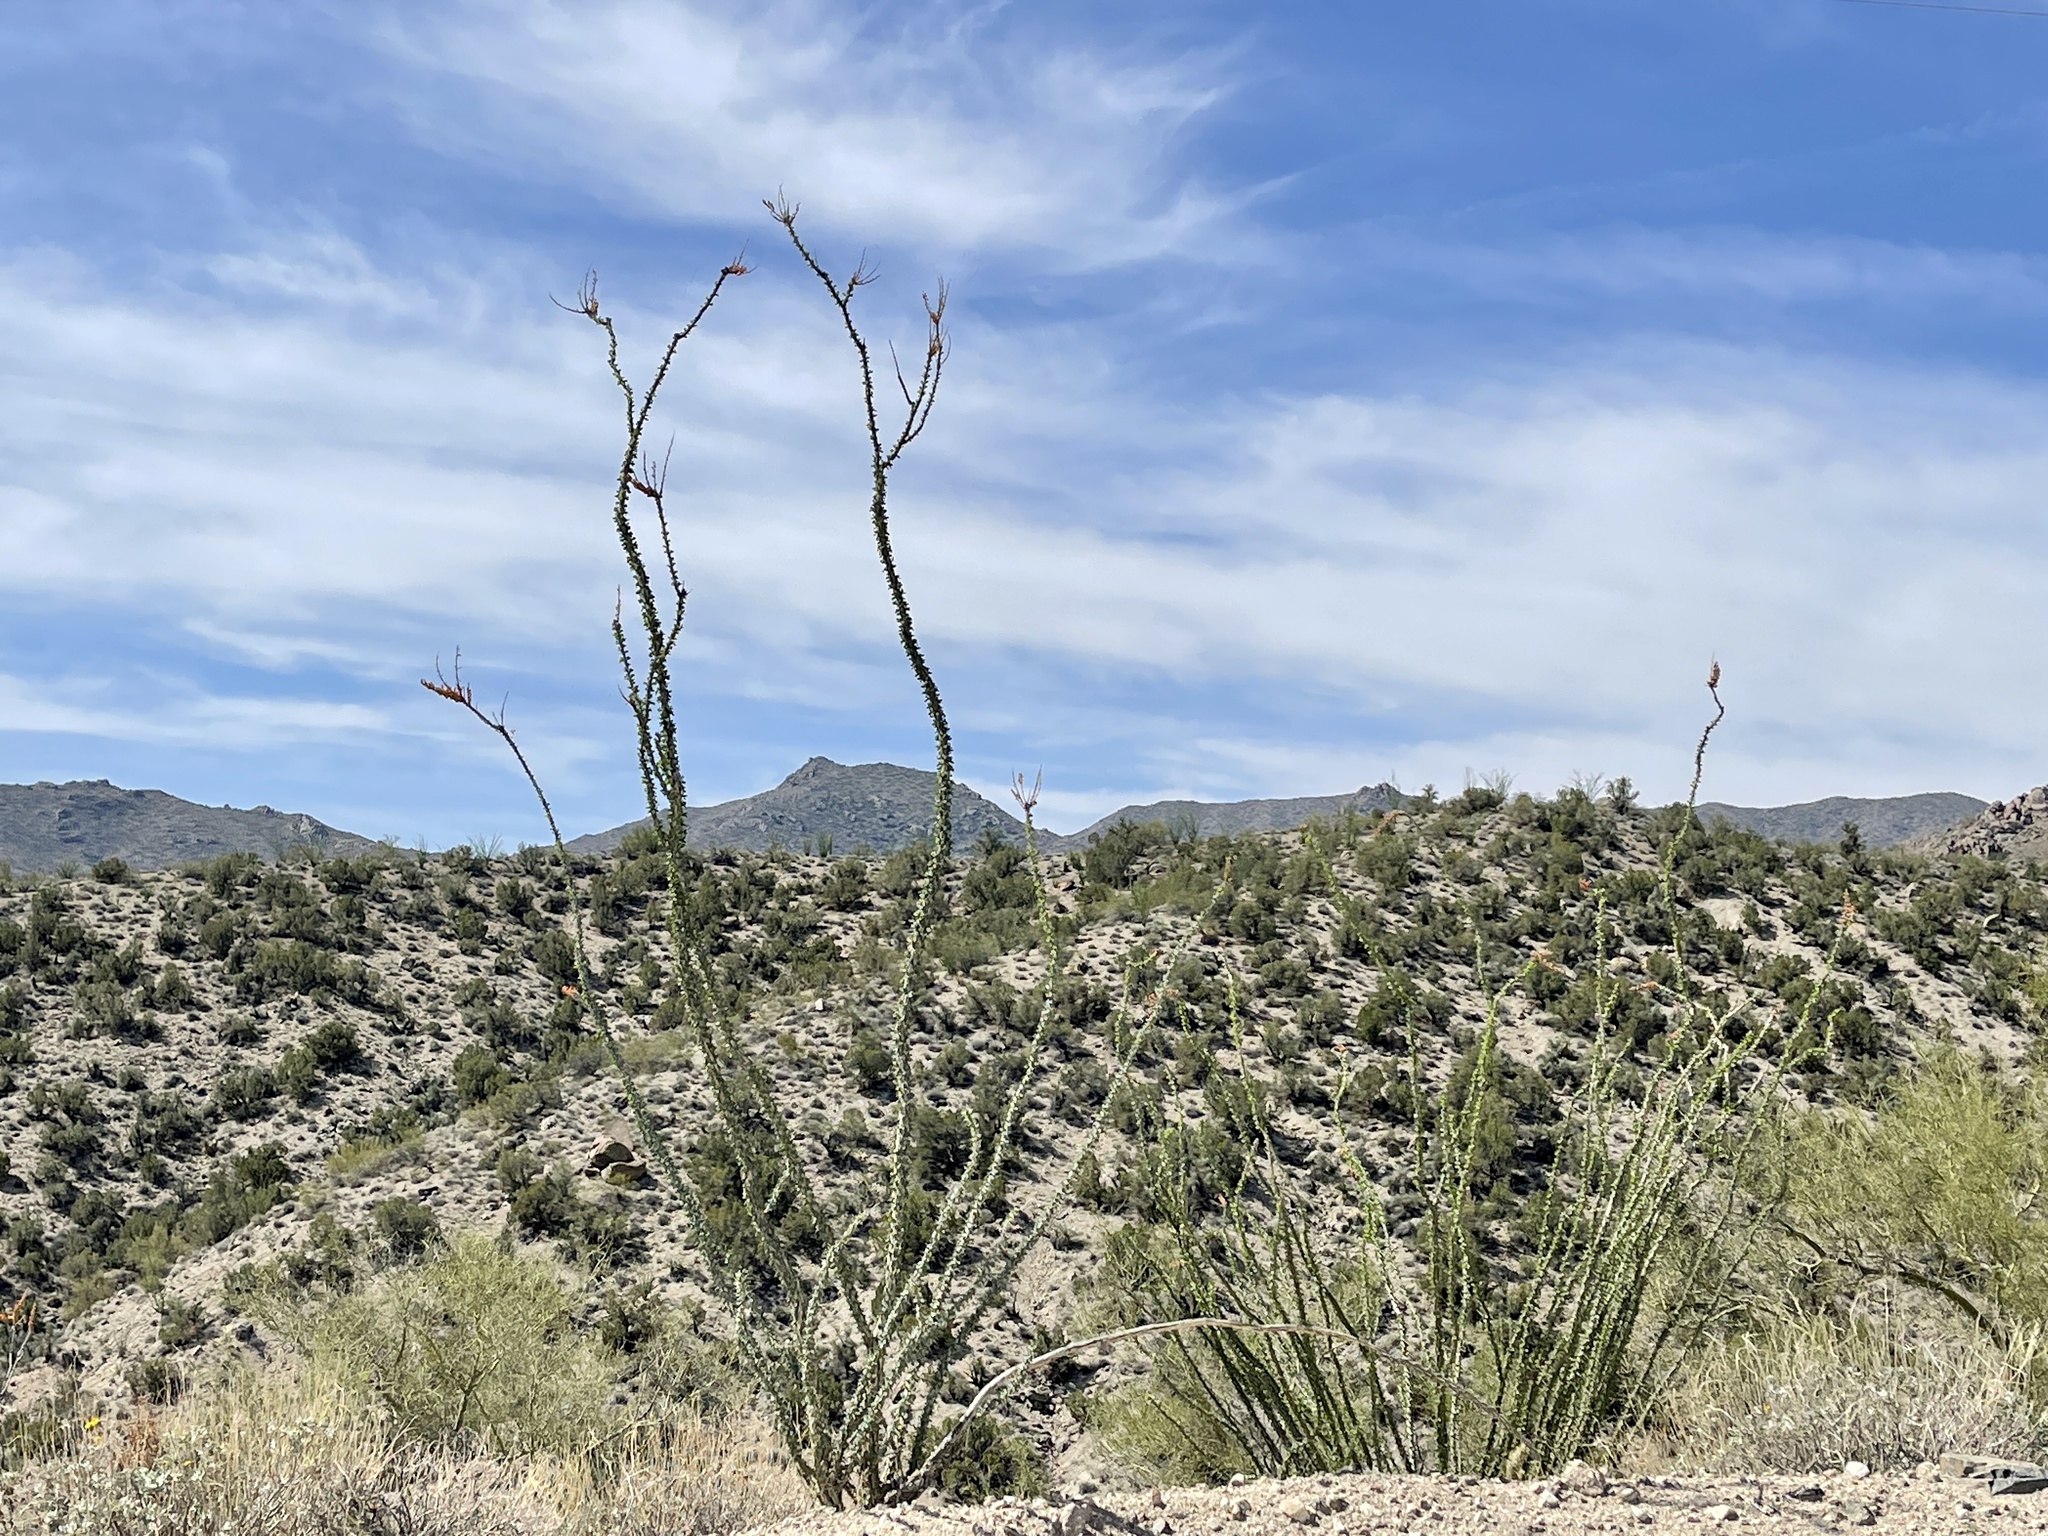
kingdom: Plantae
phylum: Tracheophyta
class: Magnoliopsida
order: Ericales
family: Fouquieriaceae
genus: Fouquieria
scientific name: Fouquieria splendens
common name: Vine-cactus
